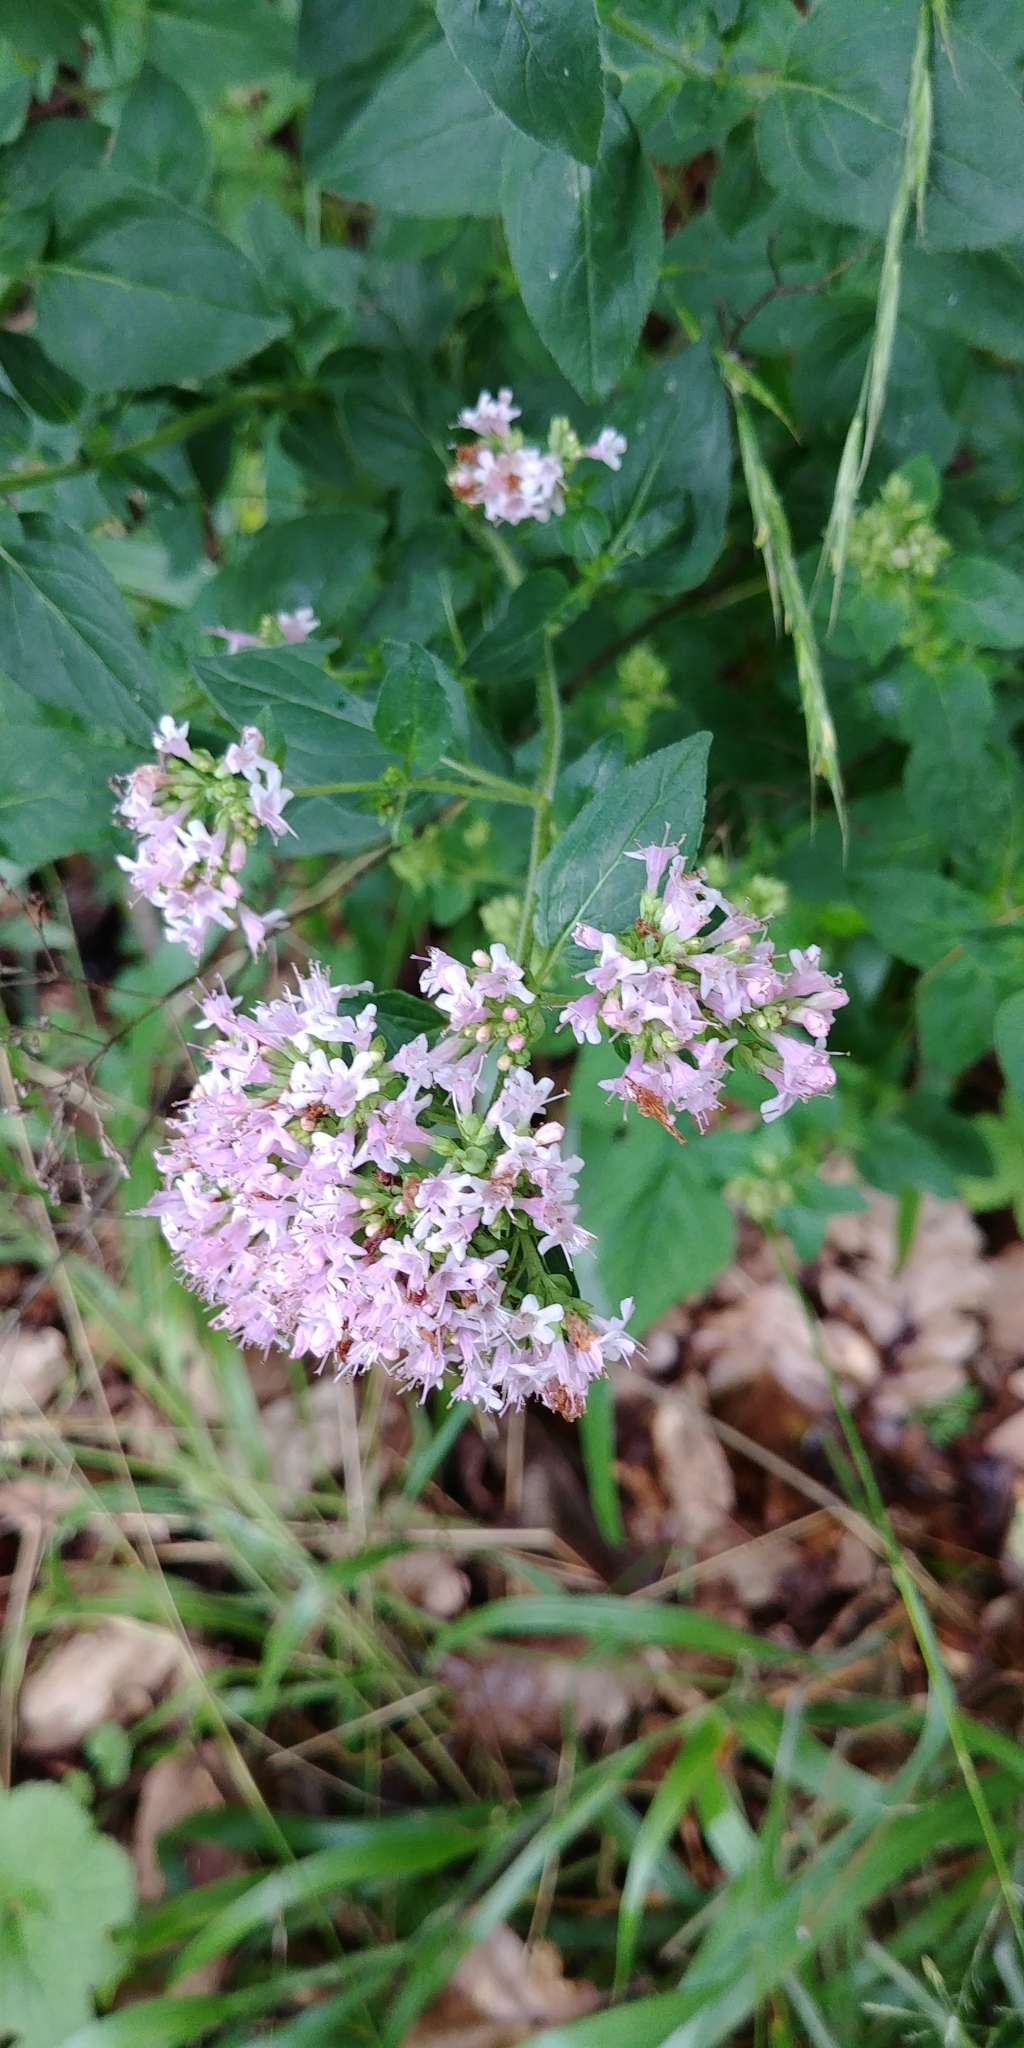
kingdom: Plantae
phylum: Tracheophyta
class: Magnoliopsida
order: Lamiales
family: Lamiaceae
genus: Origanum
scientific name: Origanum vulgare
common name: Wild marjoram
